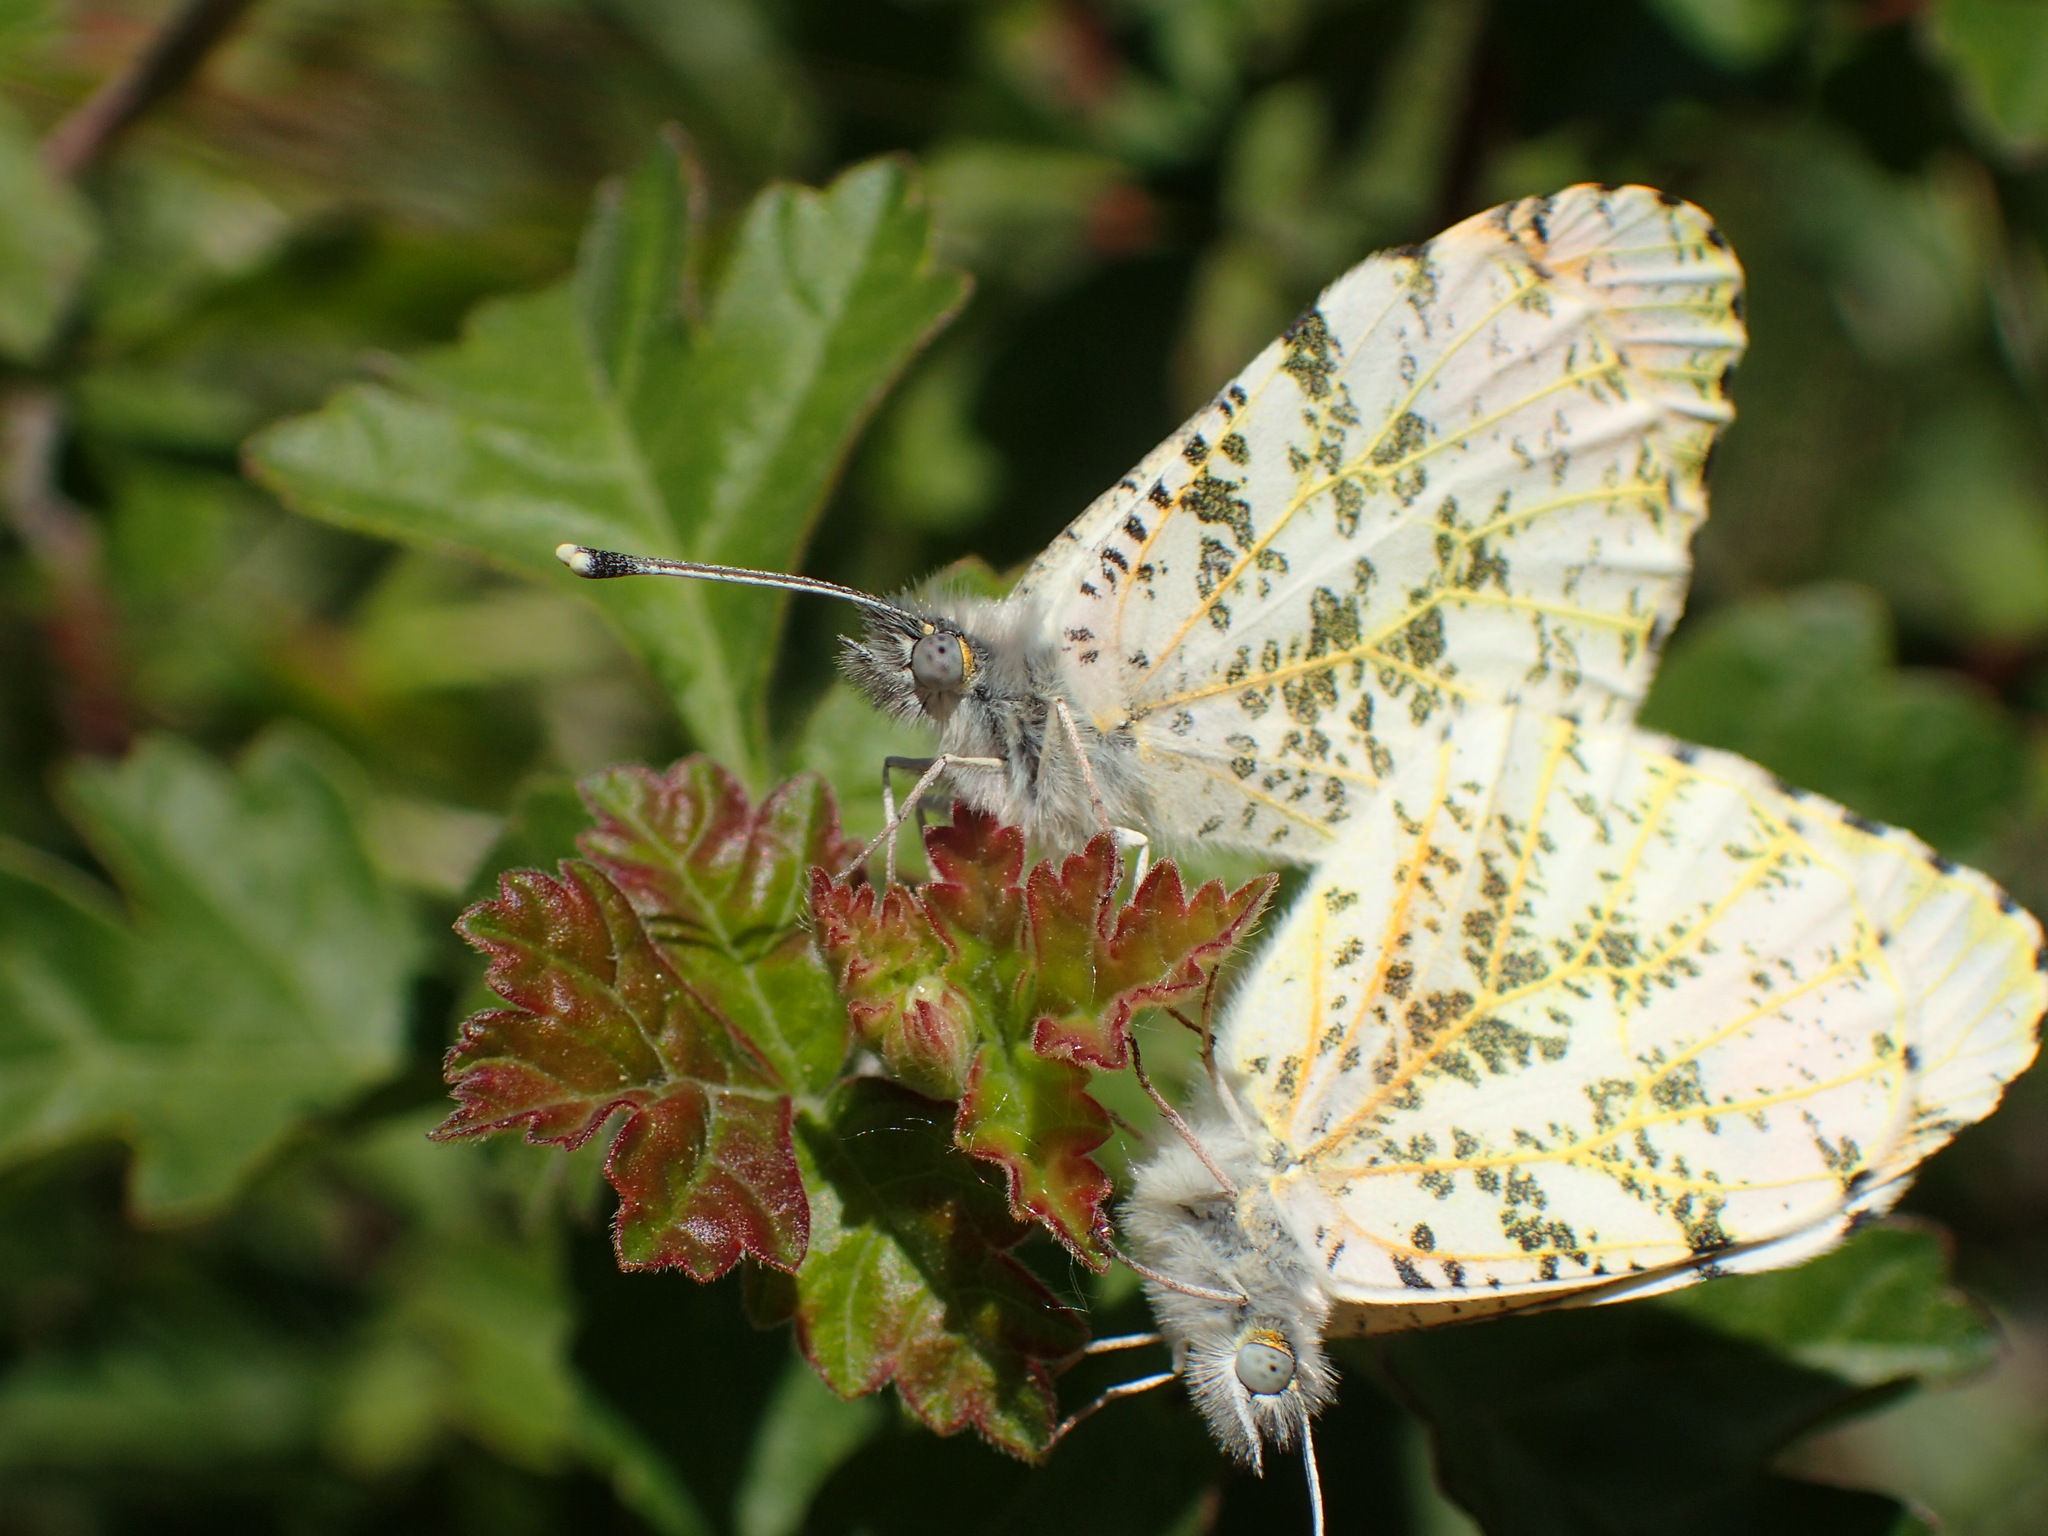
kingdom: Animalia
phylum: Arthropoda
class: Insecta
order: Lepidoptera
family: Pieridae
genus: Anthocharis
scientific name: Anthocharis sara
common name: Sara's orangetip
